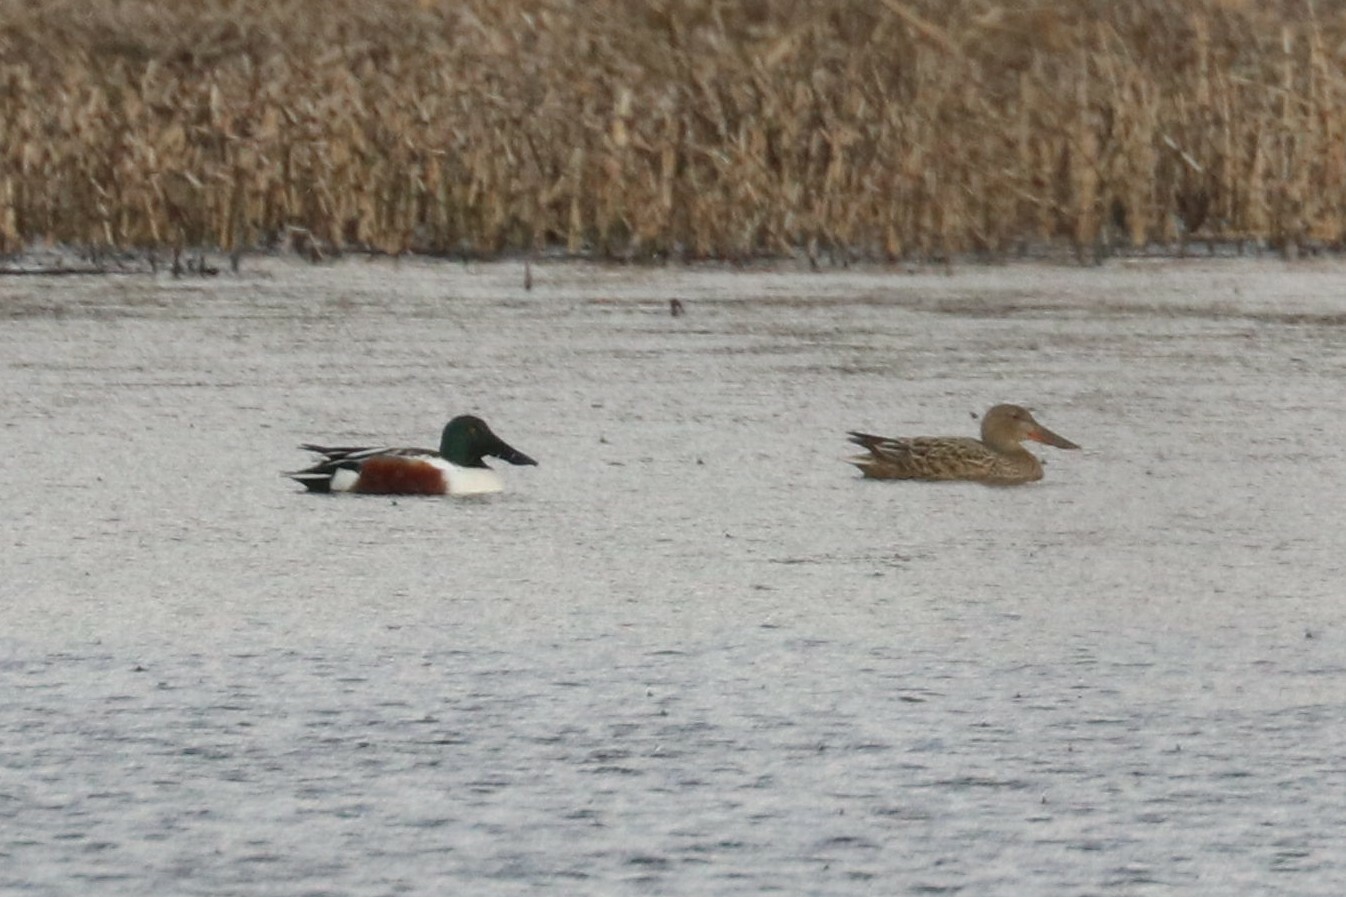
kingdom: Animalia
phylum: Chordata
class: Aves
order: Anseriformes
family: Anatidae
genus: Spatula
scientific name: Spatula clypeata
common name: Northern shoveler
